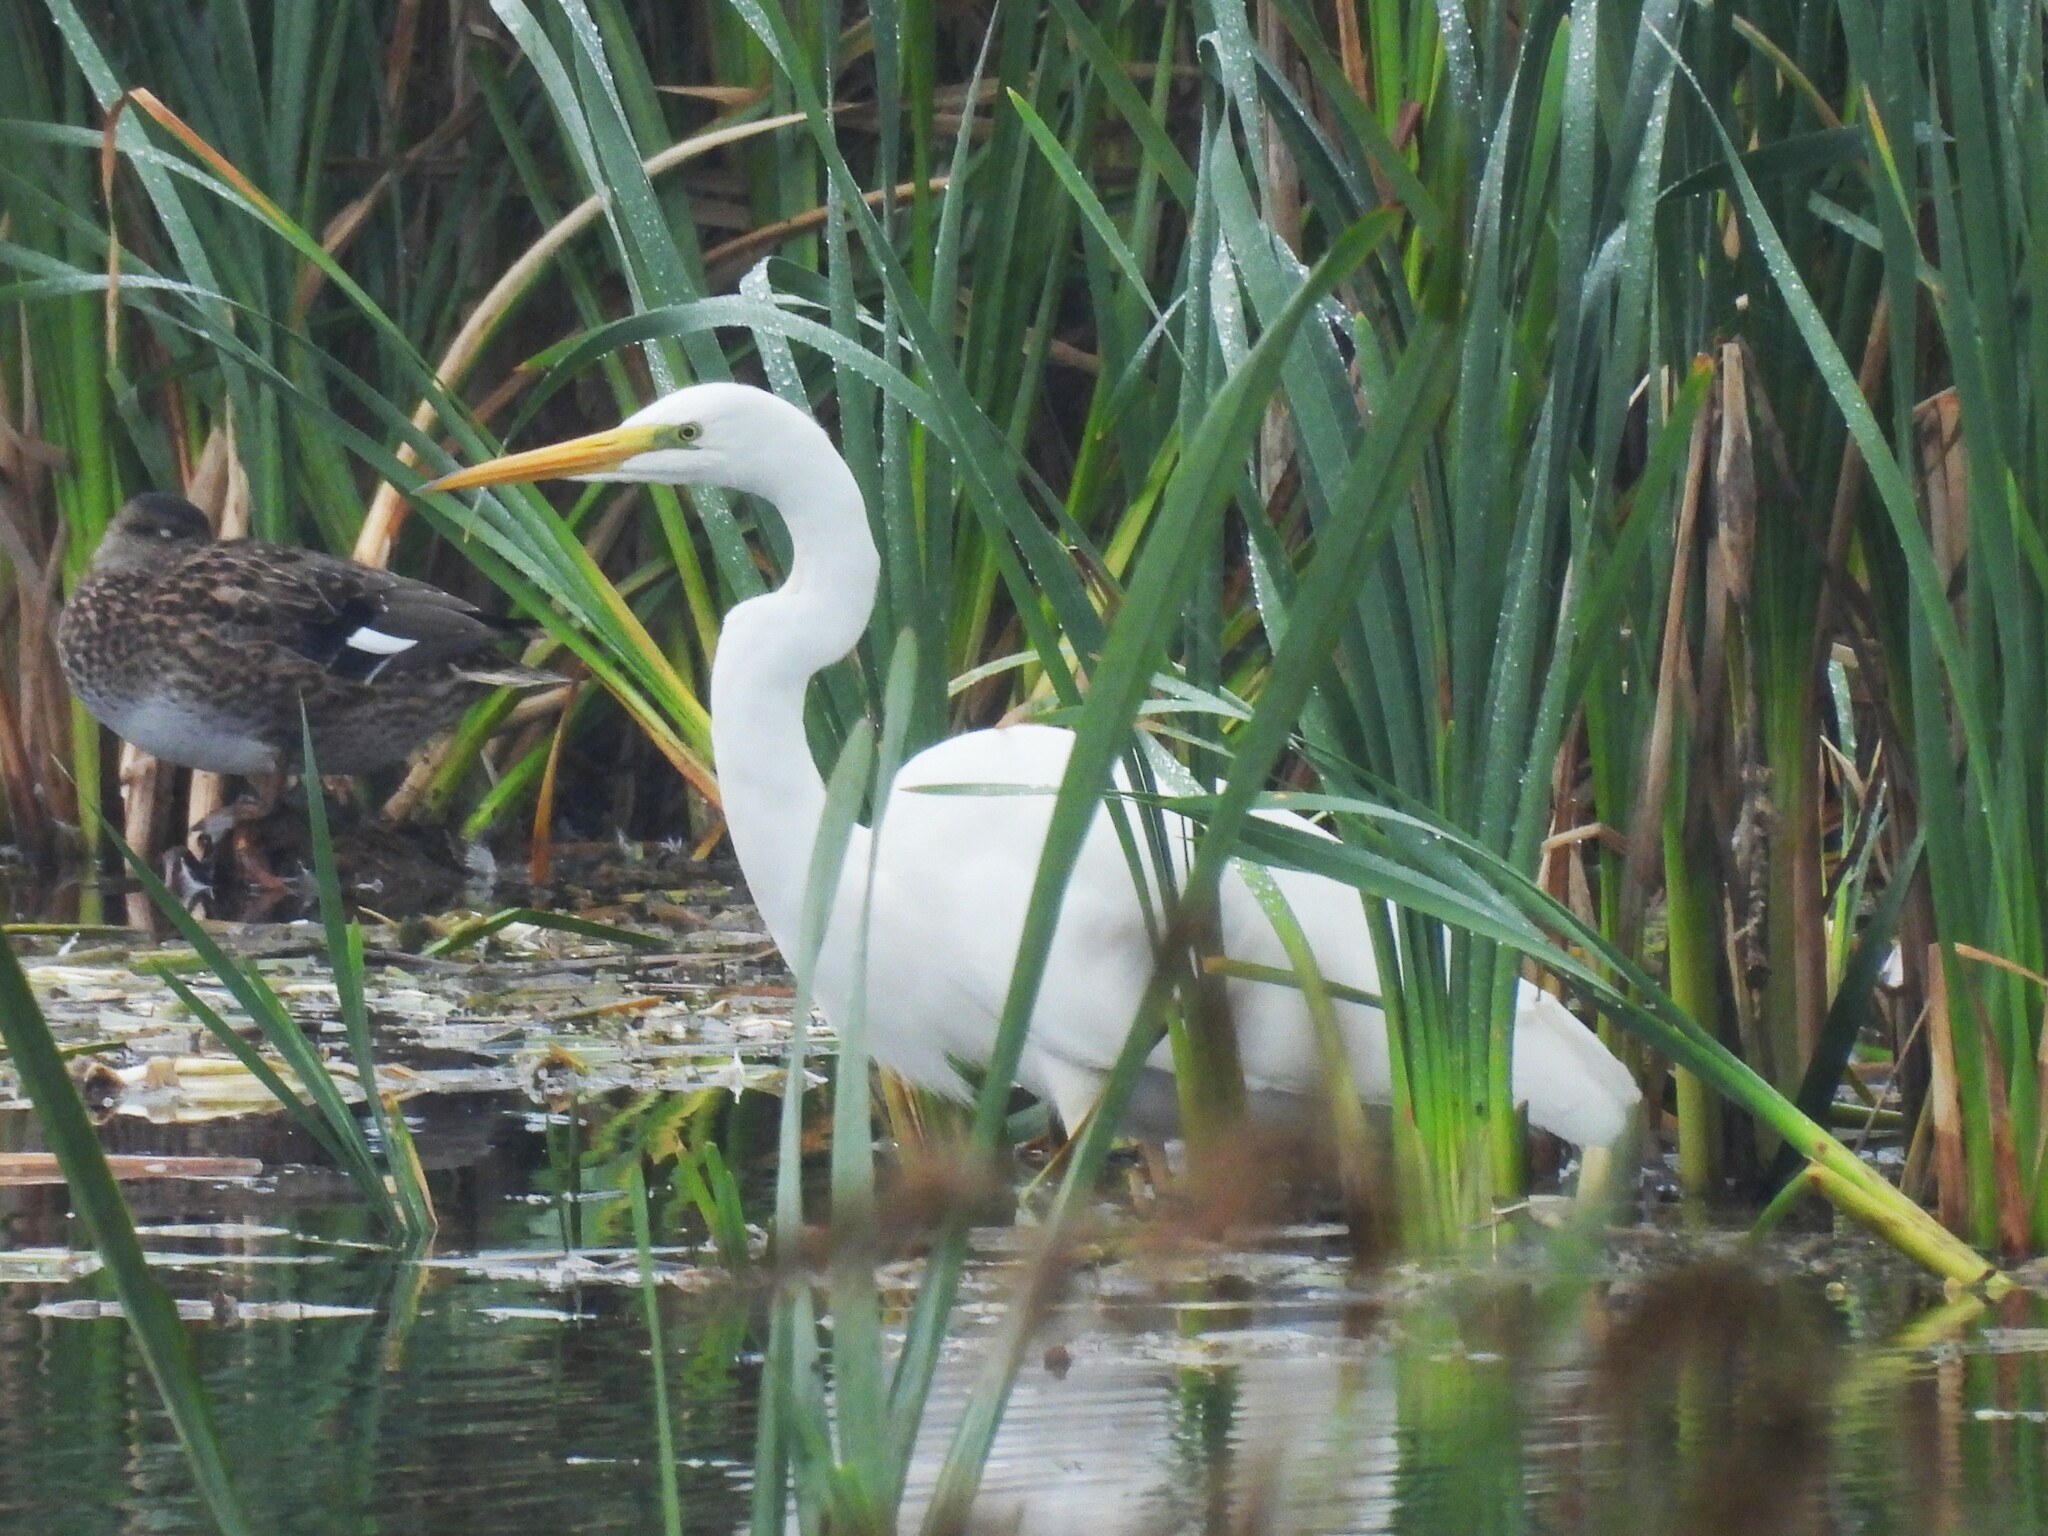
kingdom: Animalia
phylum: Chordata
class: Aves
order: Pelecaniformes
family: Ardeidae
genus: Ardea
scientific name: Ardea alba
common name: Great egret
